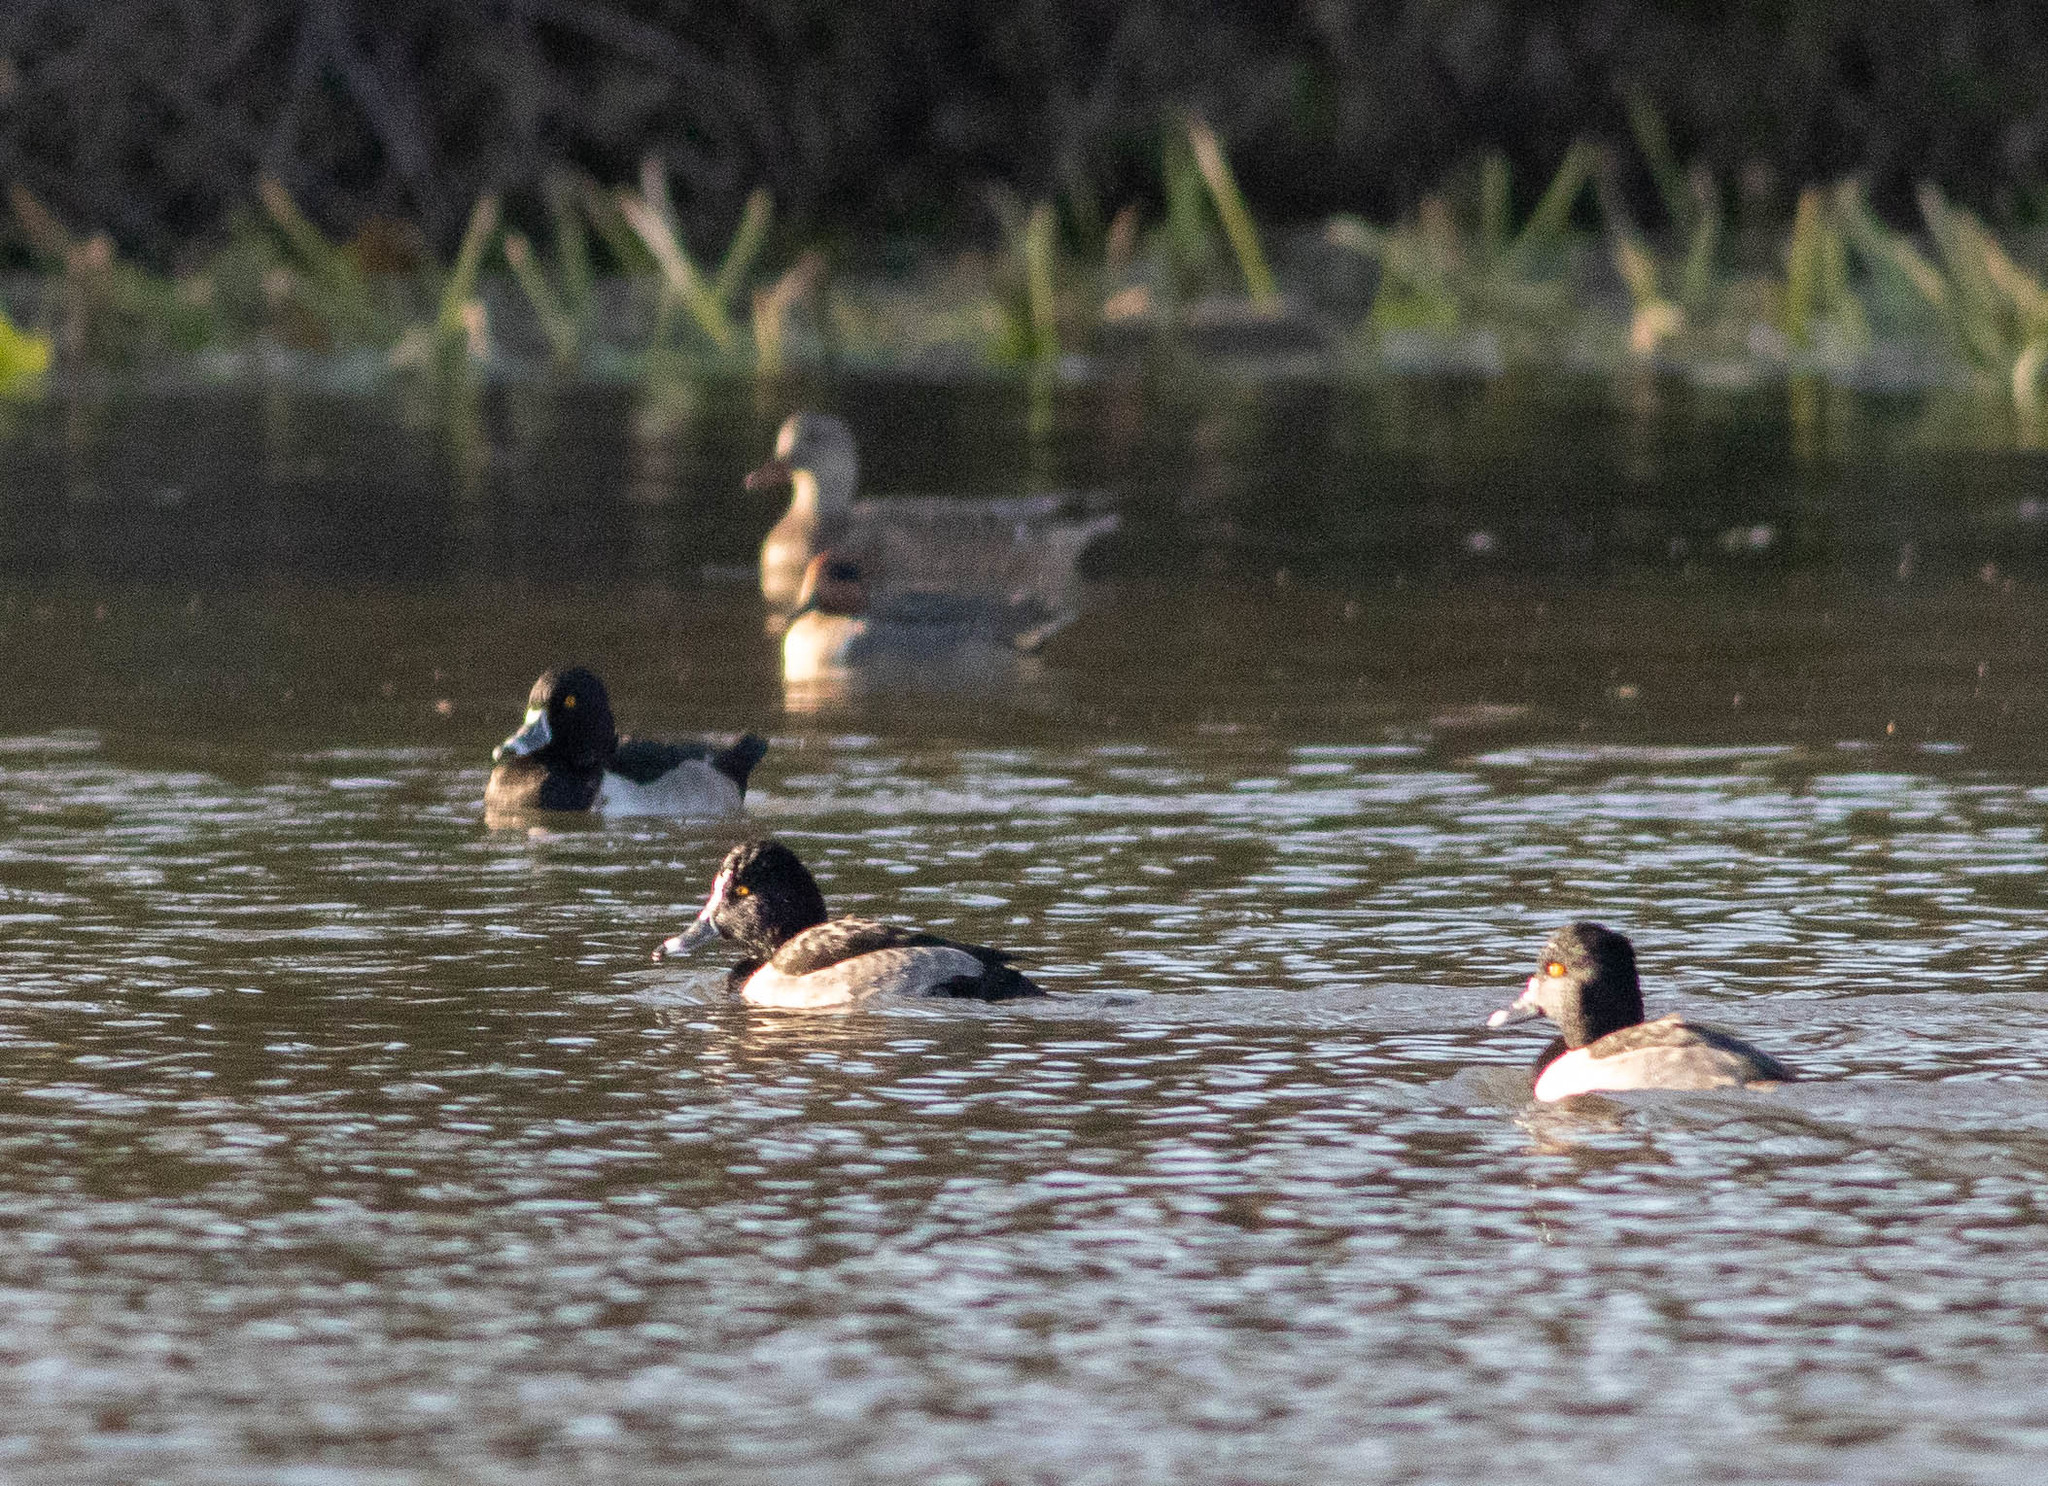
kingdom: Animalia
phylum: Chordata
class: Aves
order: Anseriformes
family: Anatidae
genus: Aythya
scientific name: Aythya collaris
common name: Ring-necked duck
